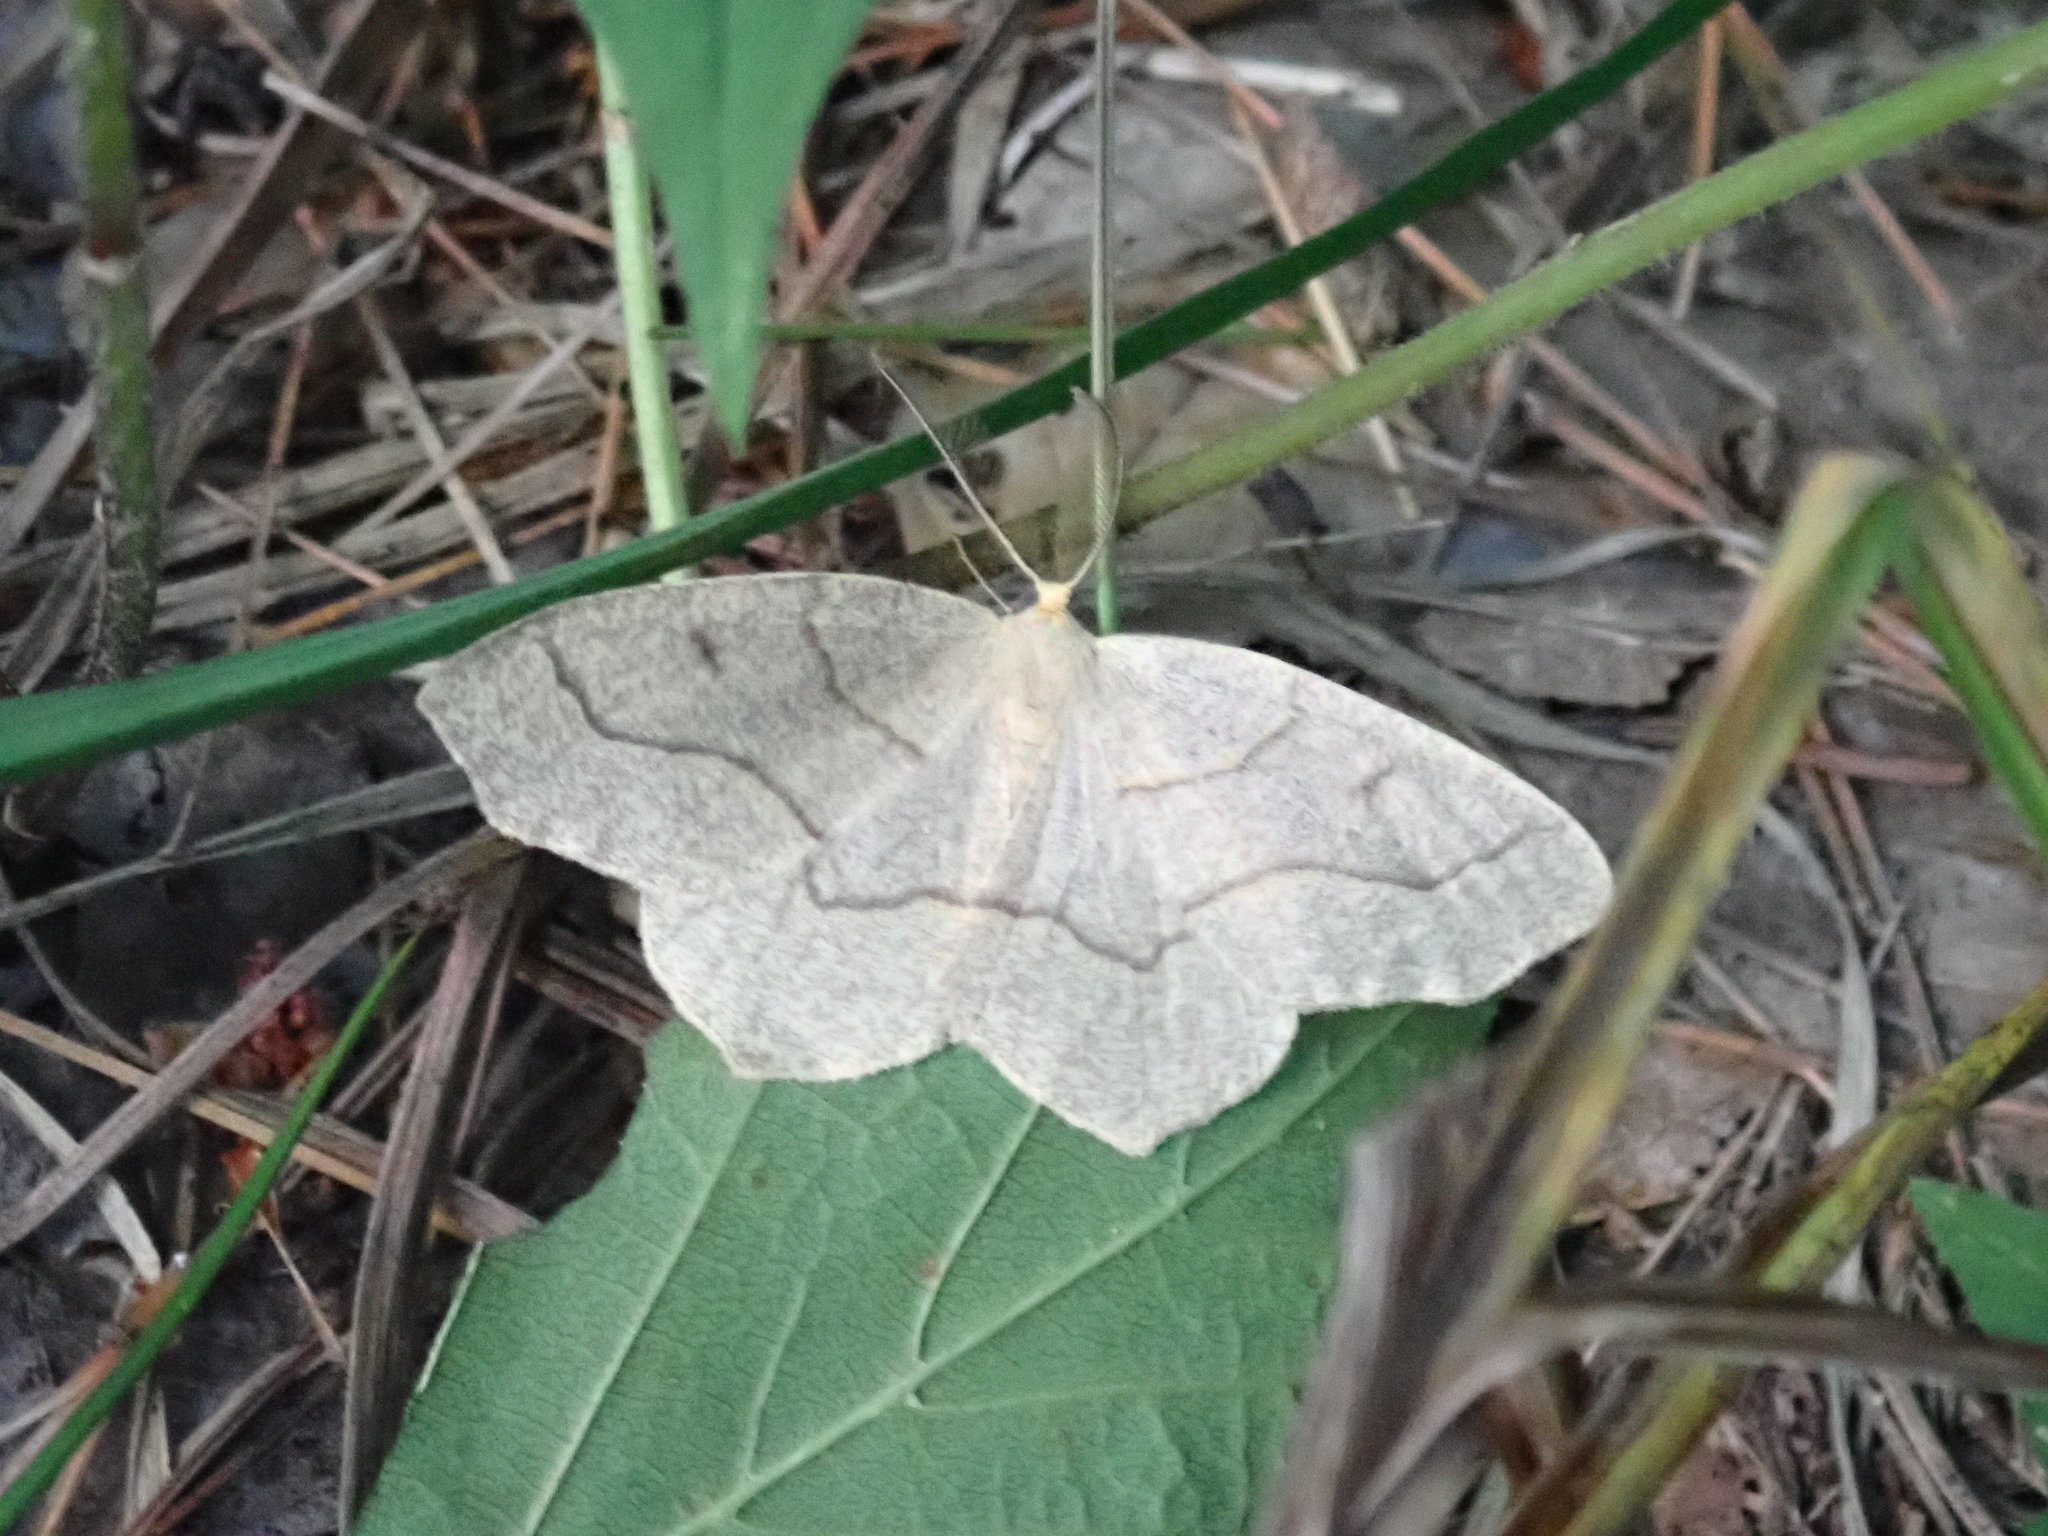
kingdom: Animalia
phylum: Arthropoda
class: Insecta
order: Lepidoptera
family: Geometridae
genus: Lambdina
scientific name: Lambdina fiscellaria
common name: Hemlock looper
